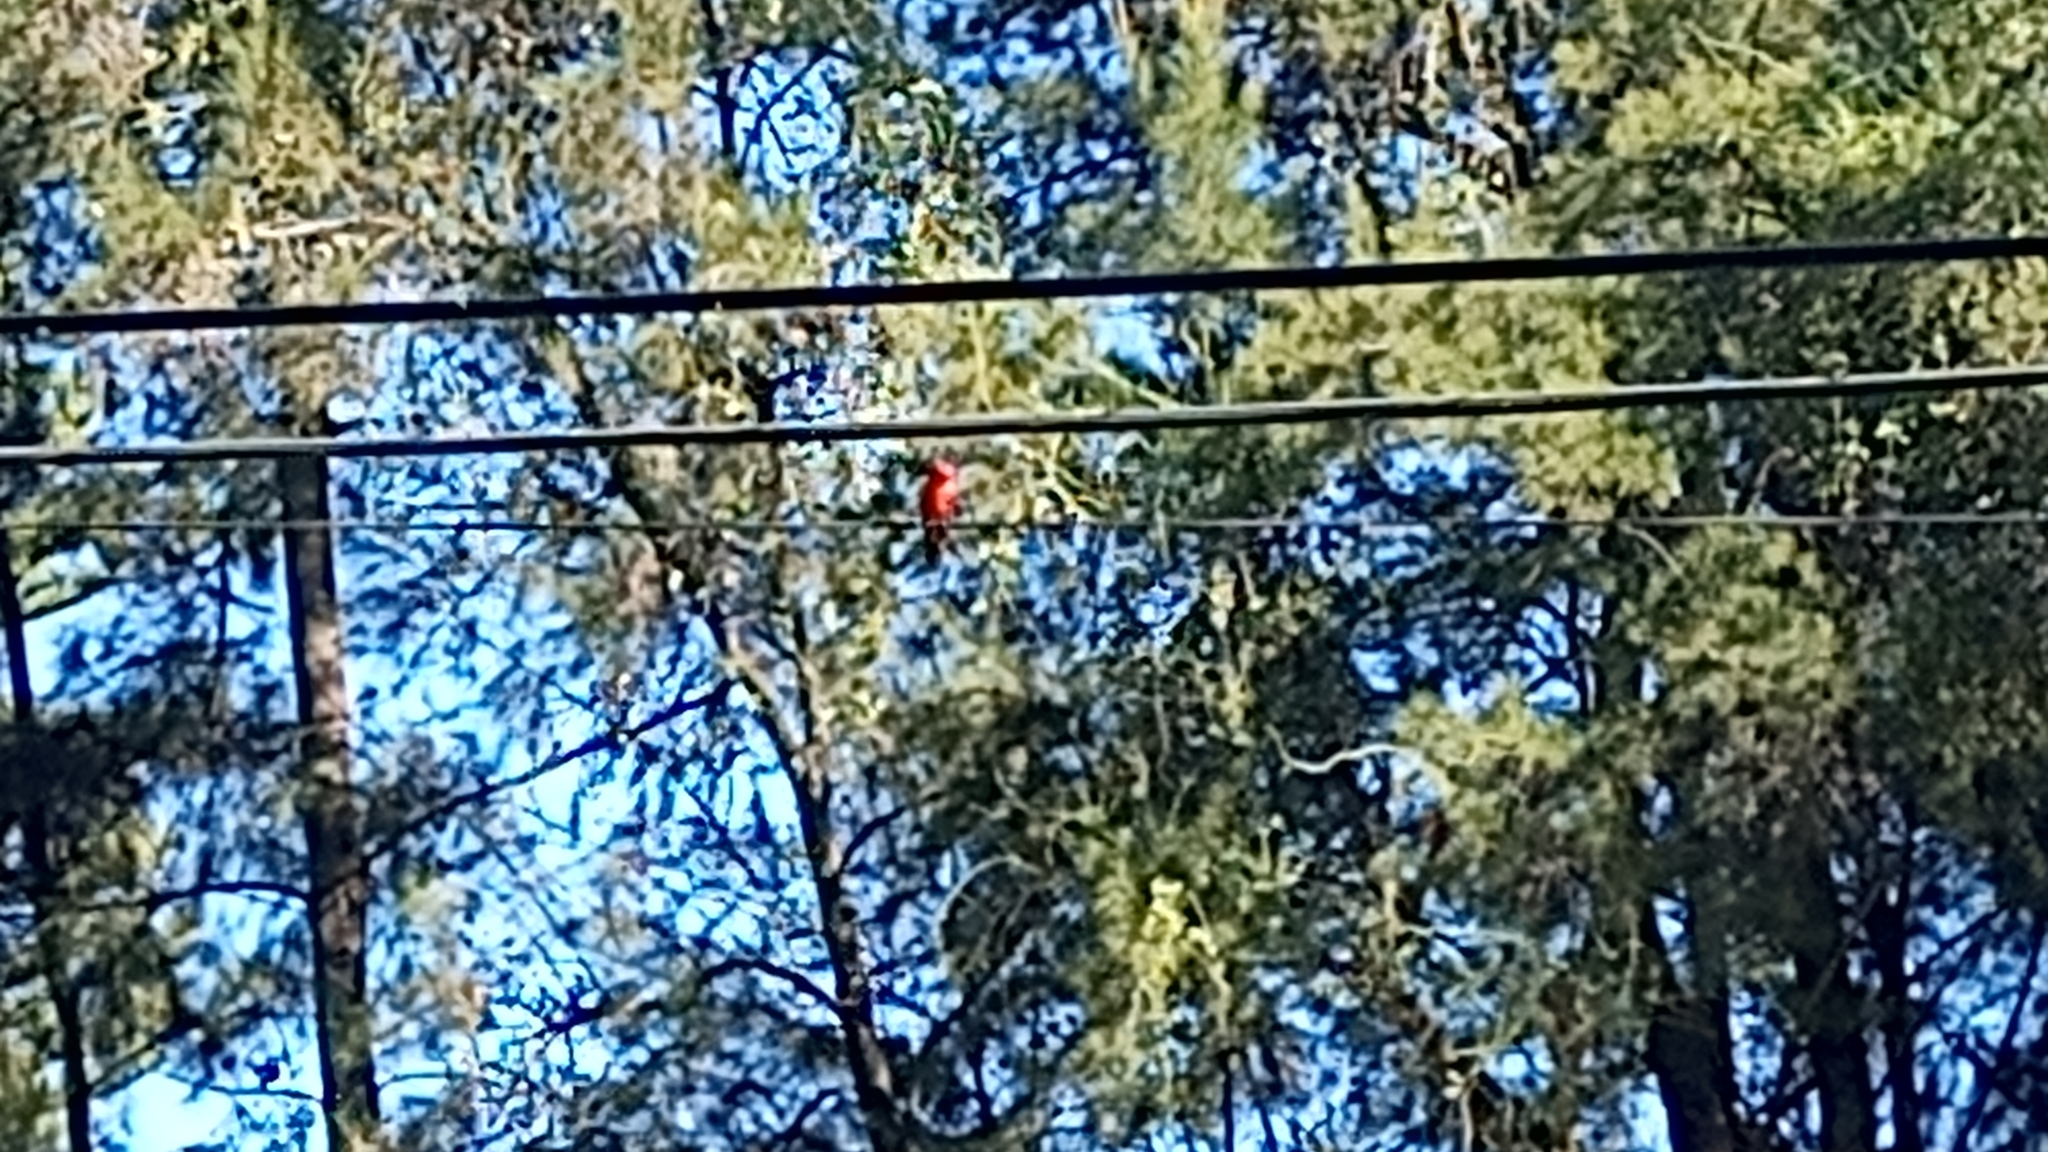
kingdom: Animalia
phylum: Chordata
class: Aves
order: Passeriformes
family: Tyrannidae
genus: Pyrocephalus
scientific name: Pyrocephalus rubinus
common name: Vermilion flycatcher
